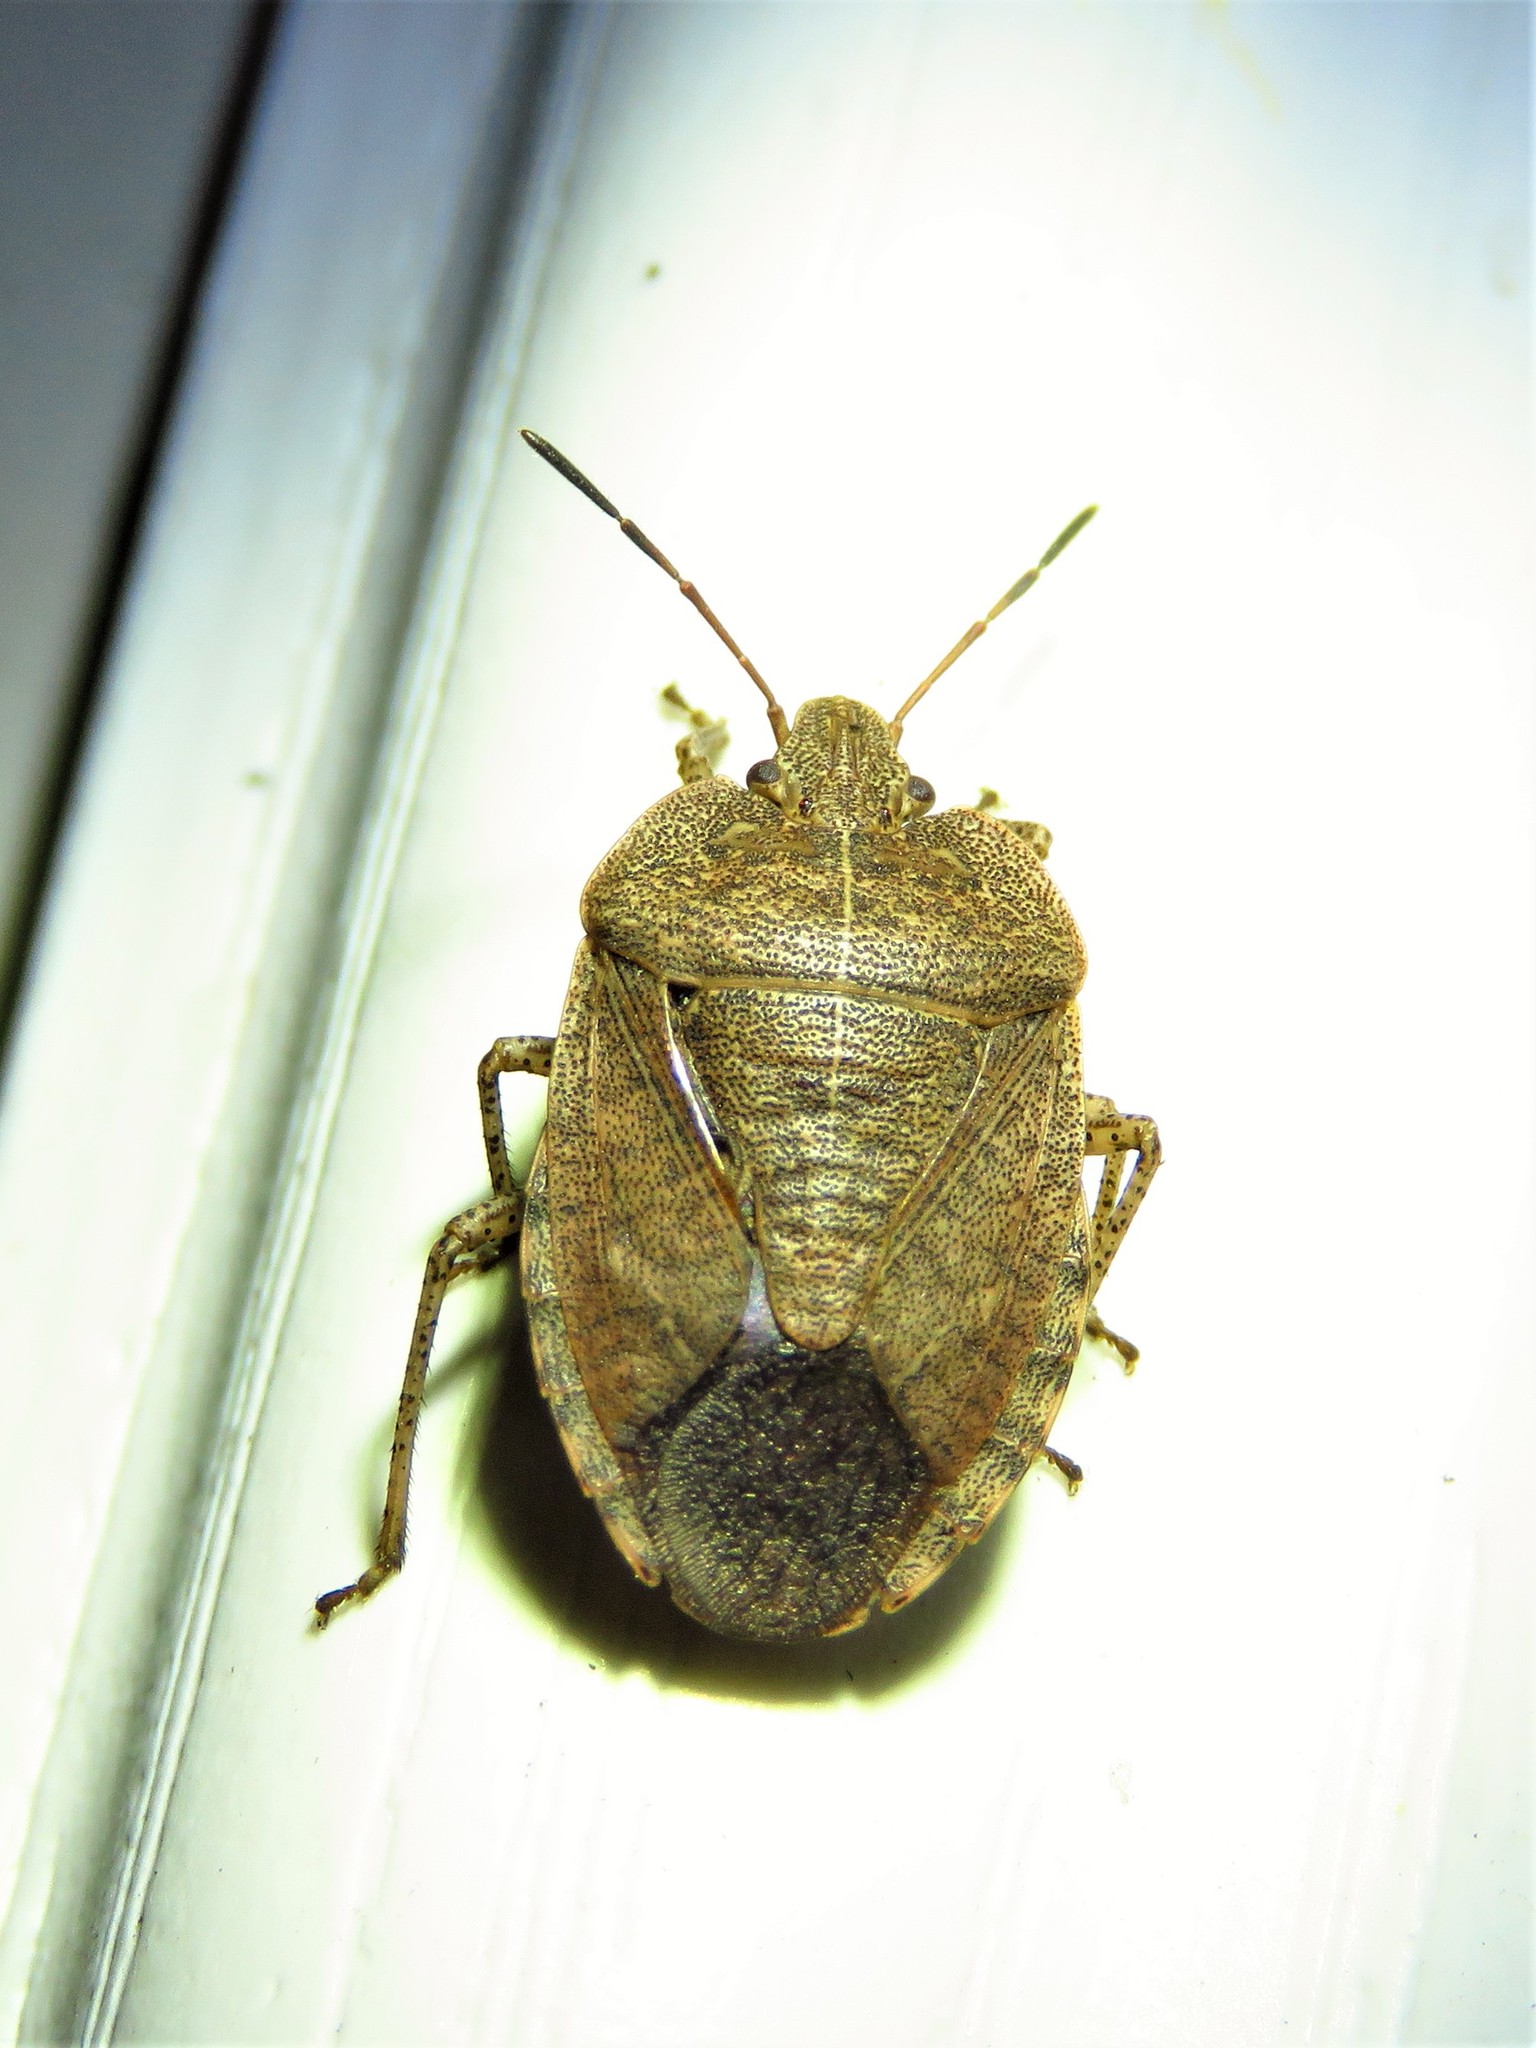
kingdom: Animalia
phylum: Arthropoda
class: Insecta
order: Hemiptera
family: Pentatomidae
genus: Menecles
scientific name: Menecles insertus
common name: Elf shoe stink bug
